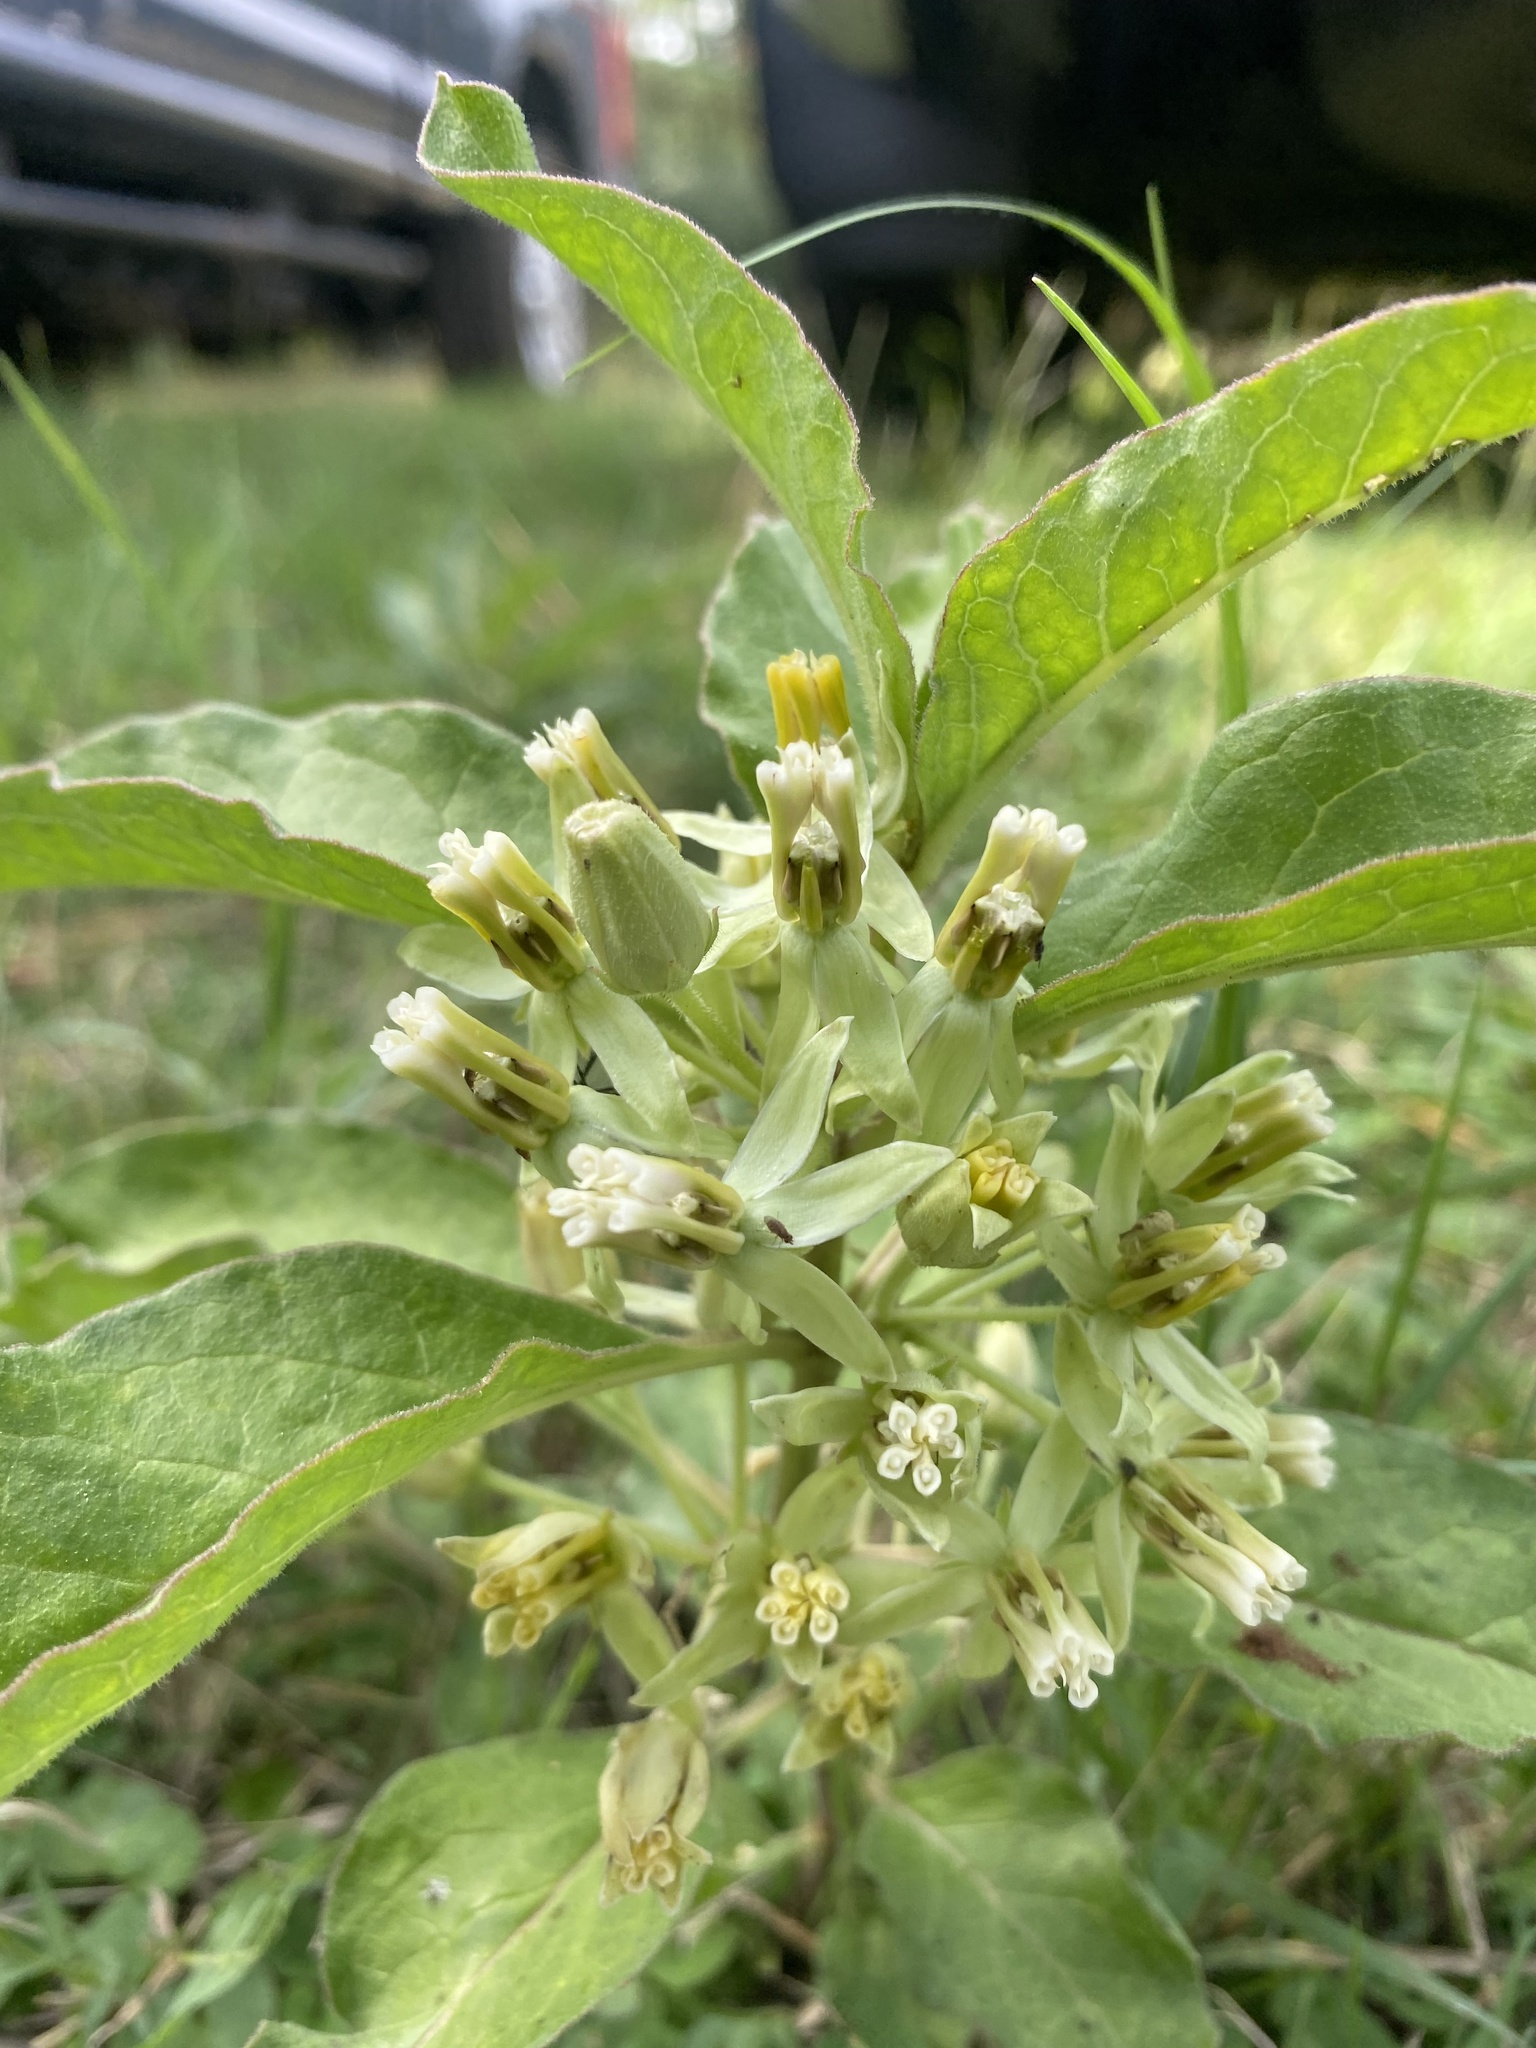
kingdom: Plantae
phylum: Tracheophyta
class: Magnoliopsida
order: Gentianales
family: Apocynaceae
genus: Asclepias
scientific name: Asclepias oenotheroides
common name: Zizotes milkweed
